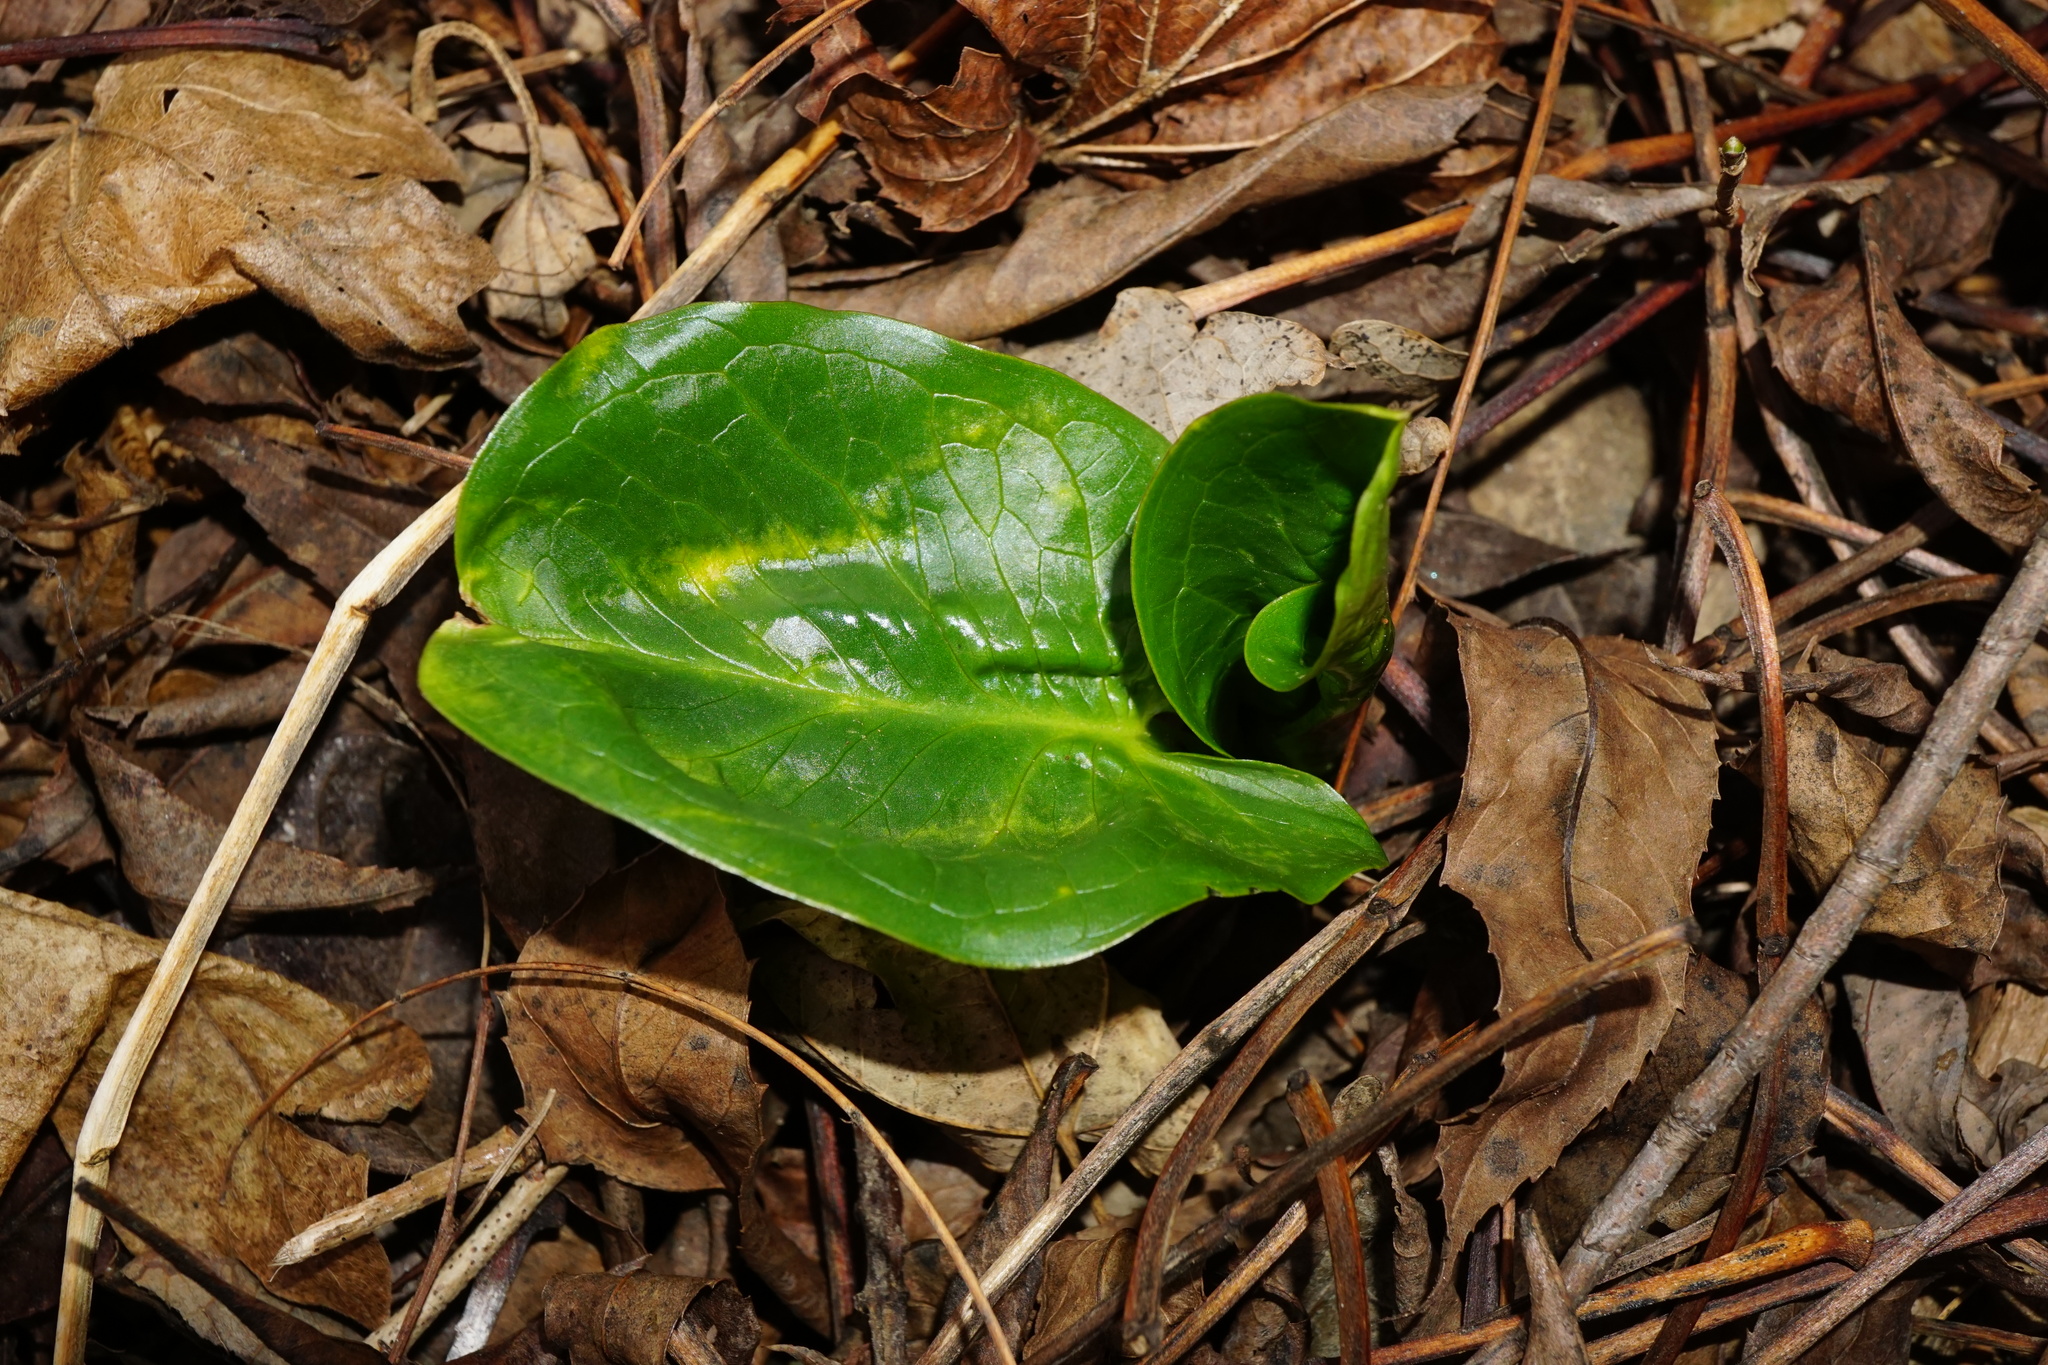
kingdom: Plantae
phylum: Tracheophyta
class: Liliopsida
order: Alismatales
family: Araceae
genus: Arum
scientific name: Arum cylindraceum
